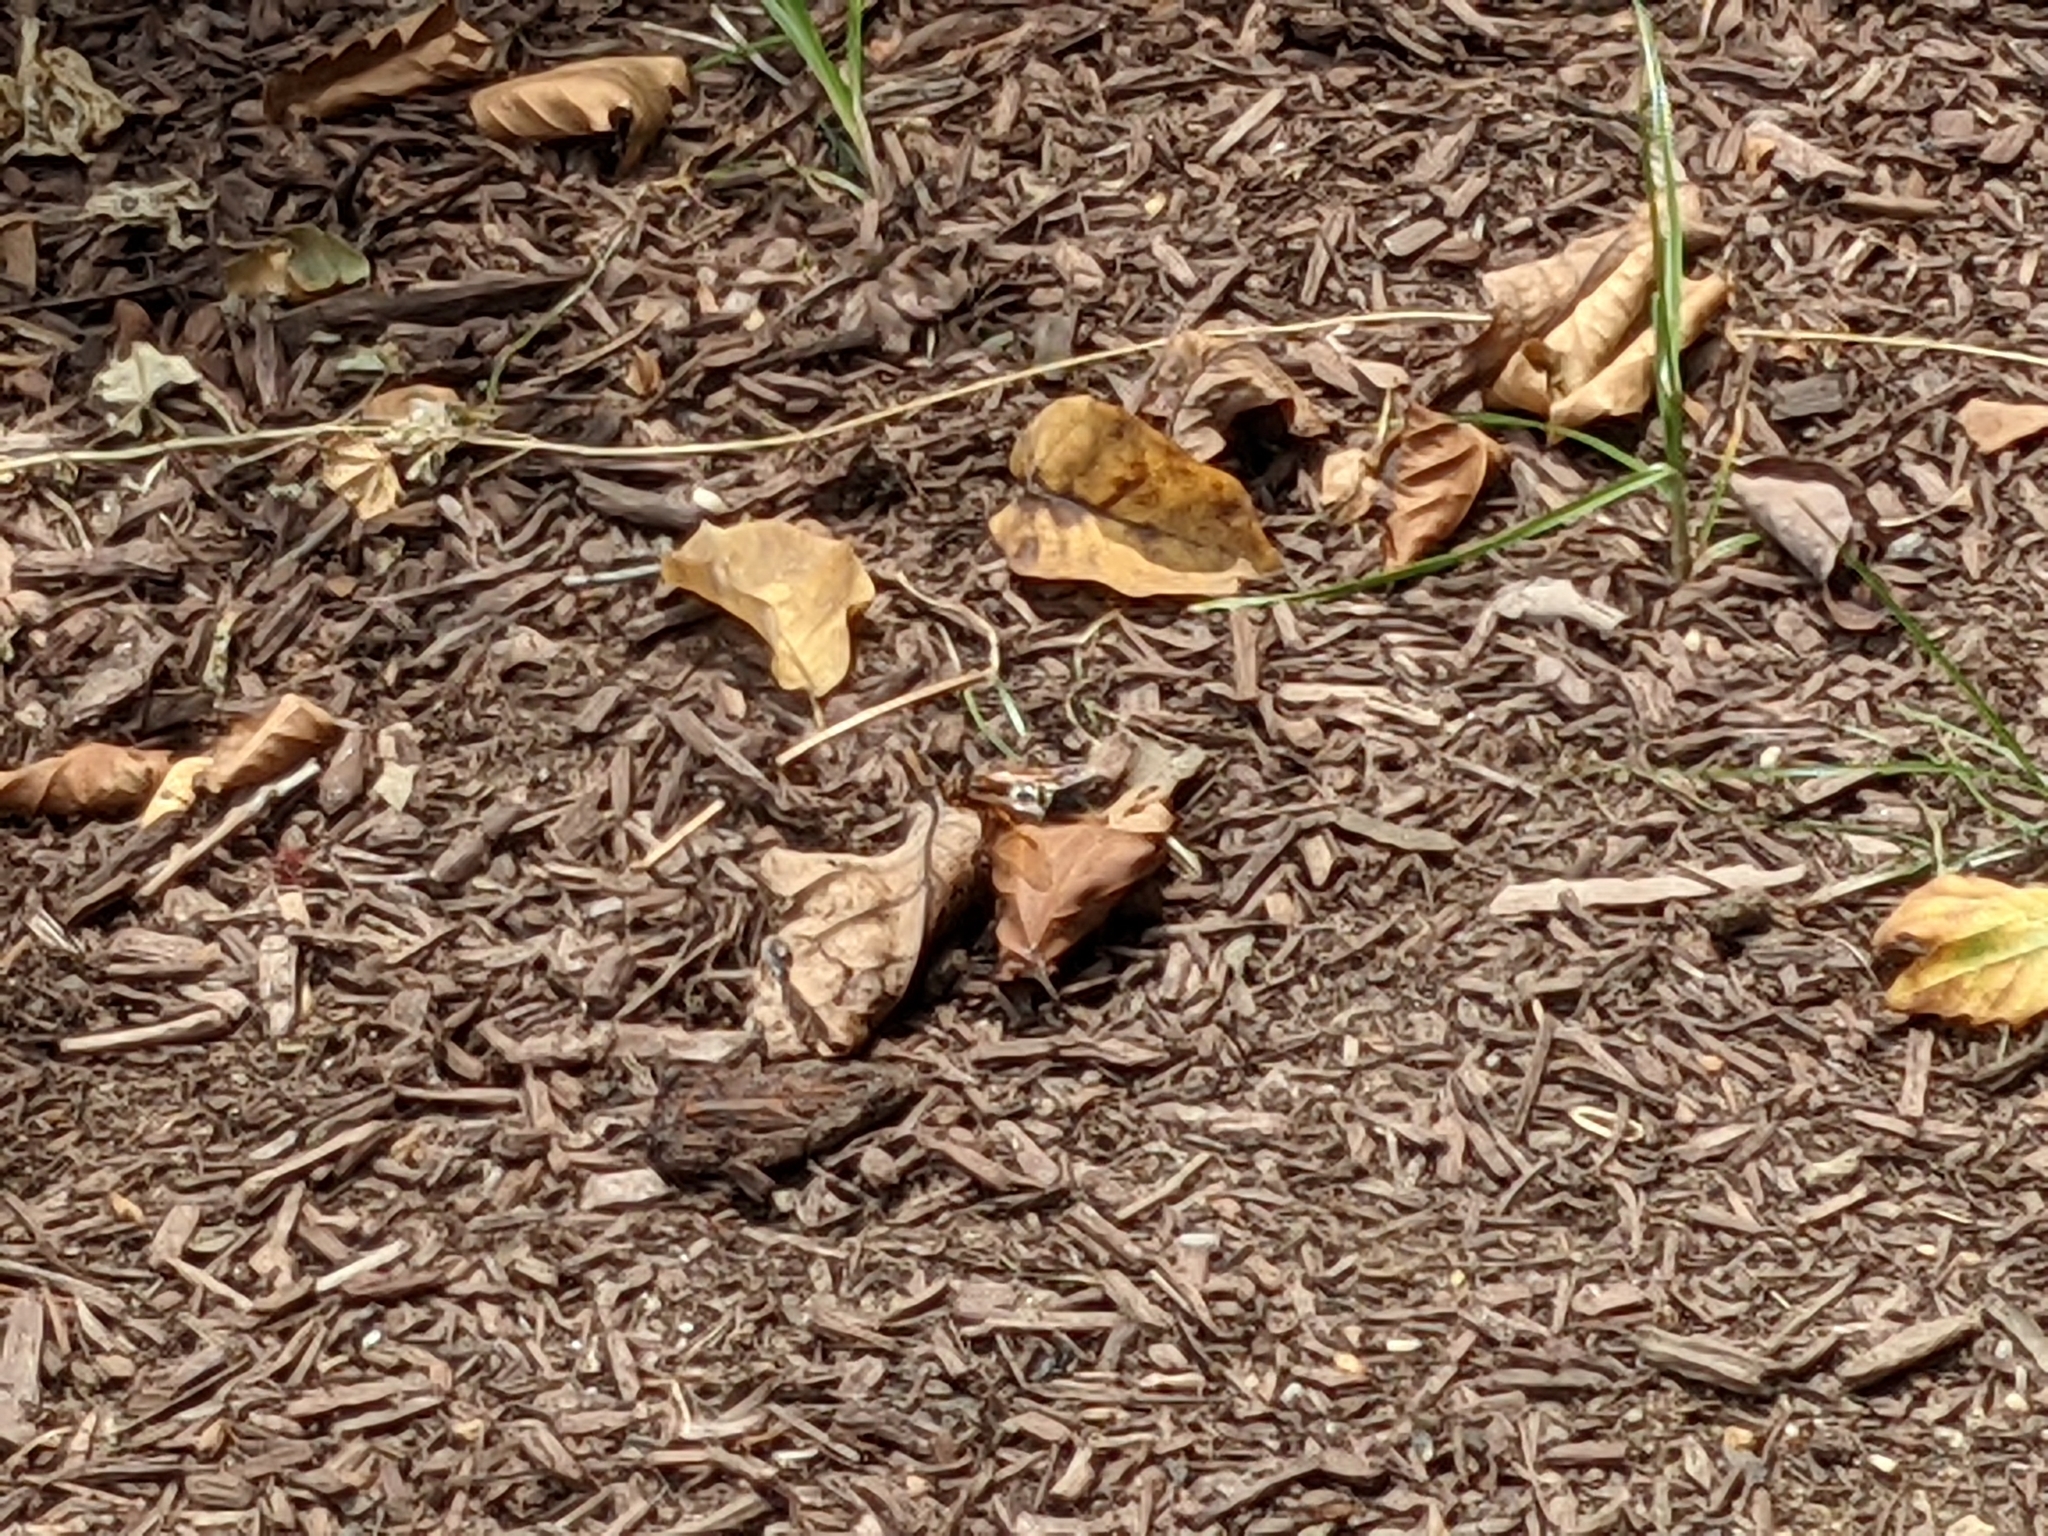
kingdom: Animalia
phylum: Arthropoda
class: Insecta
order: Hymenoptera
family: Crabronidae
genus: Sphecius
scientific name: Sphecius speciosus
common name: Cicada killer
